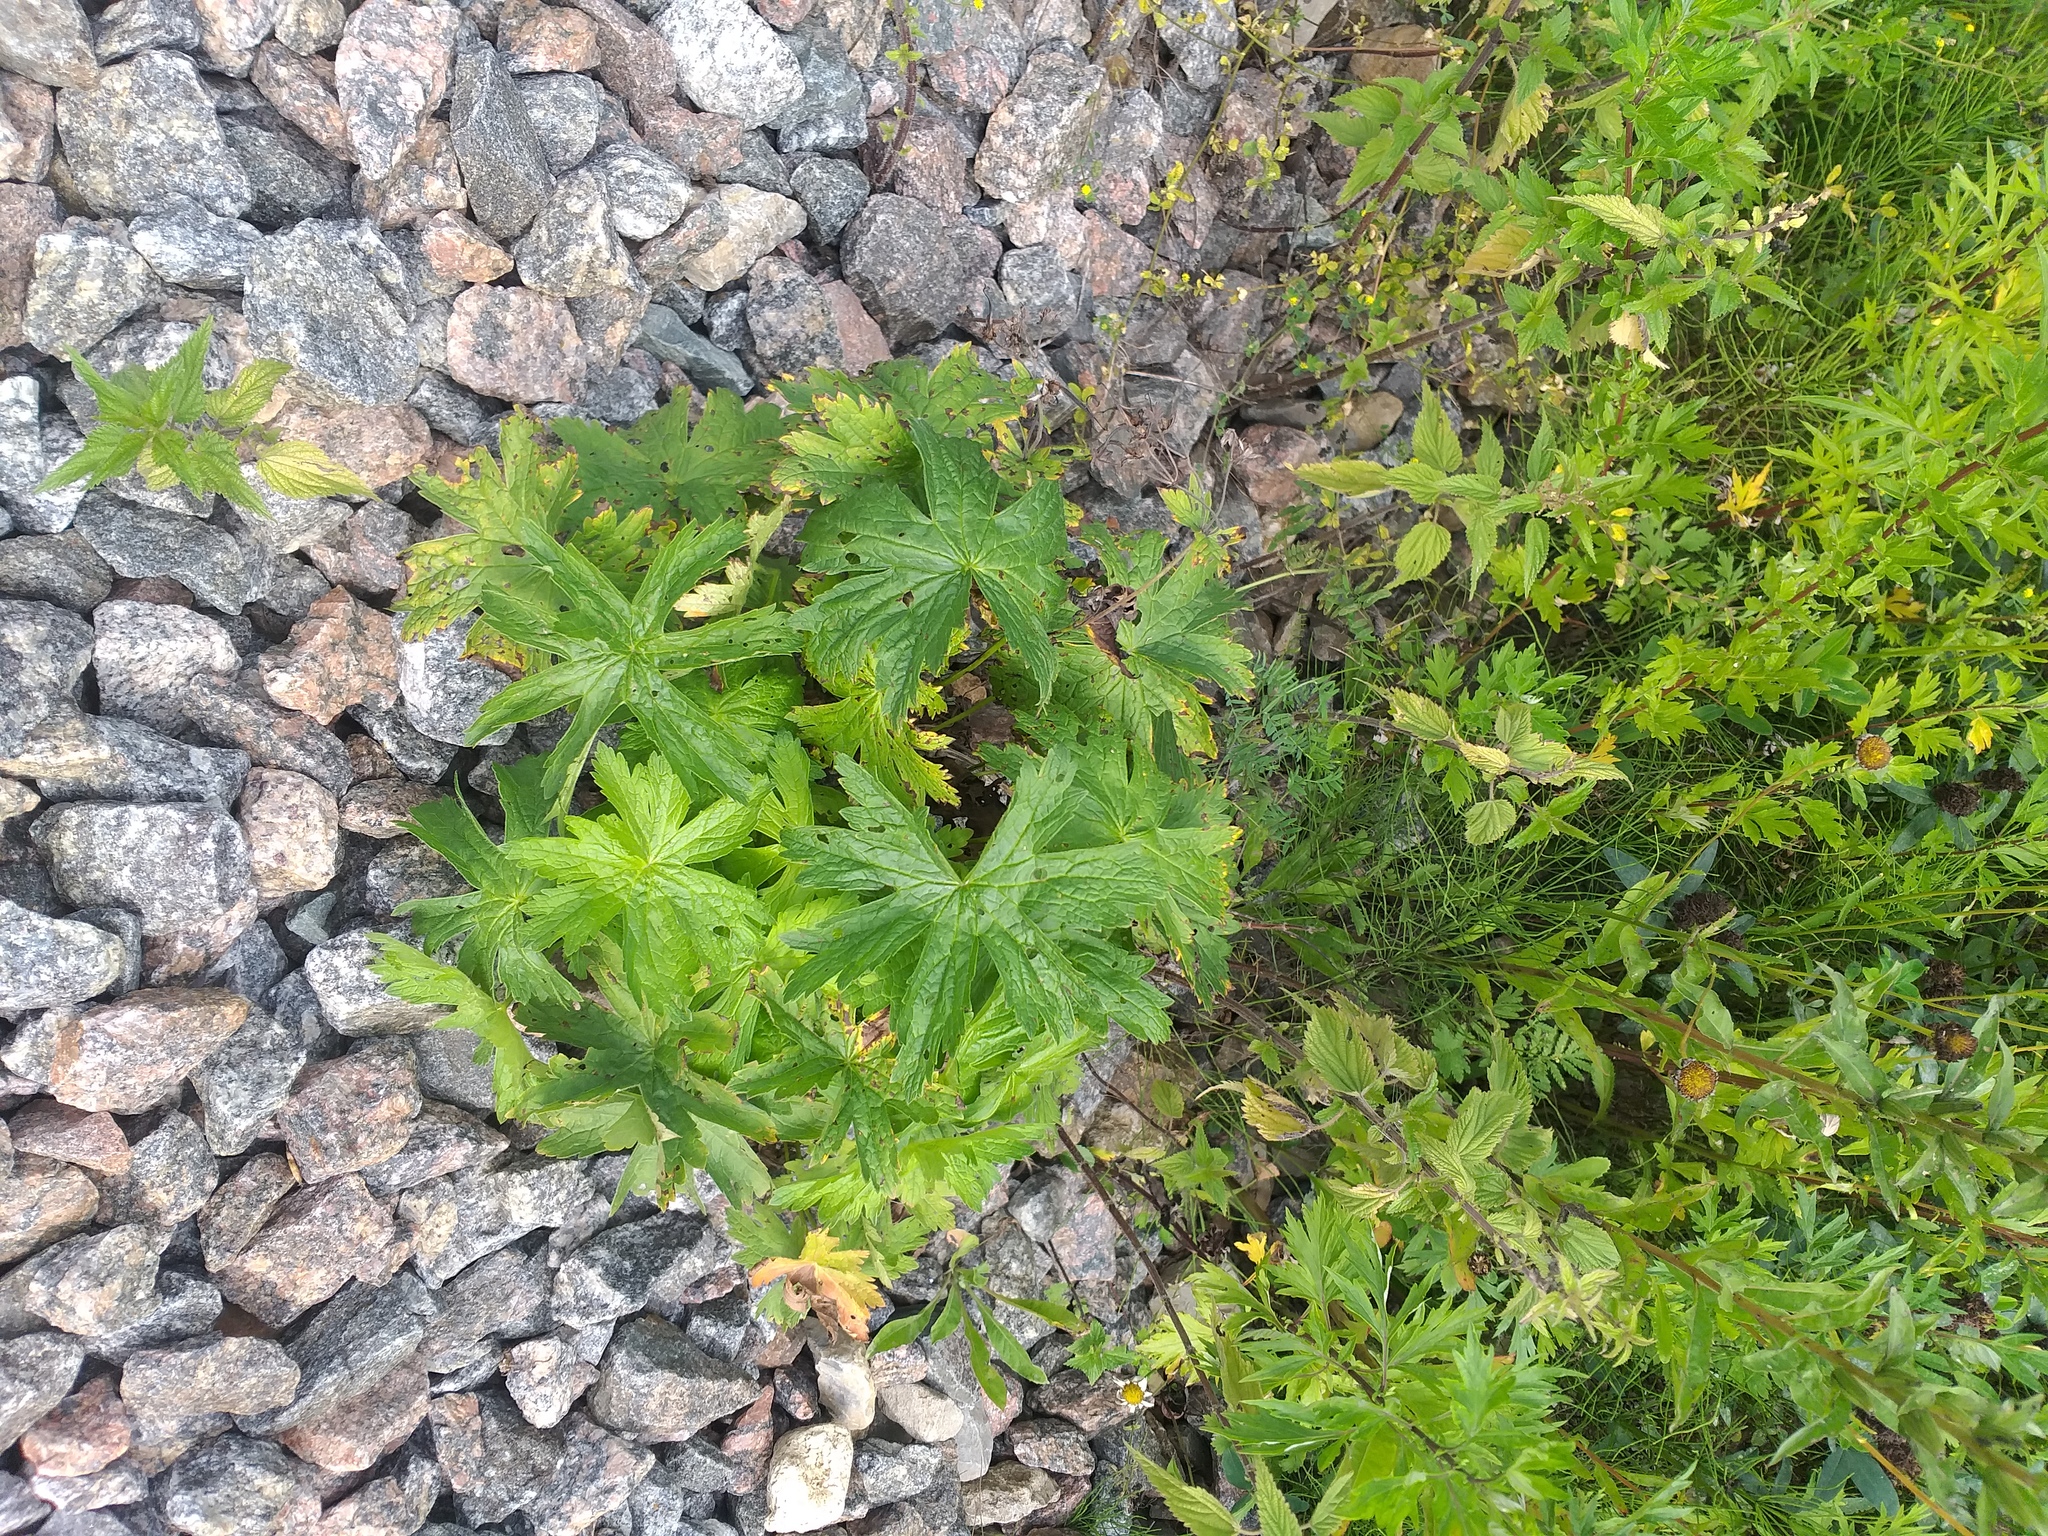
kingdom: Plantae
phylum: Tracheophyta
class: Magnoliopsida
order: Geraniales
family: Geraniaceae
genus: Geranium
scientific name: Geranium sylvaticum
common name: Wood crane's-bill
